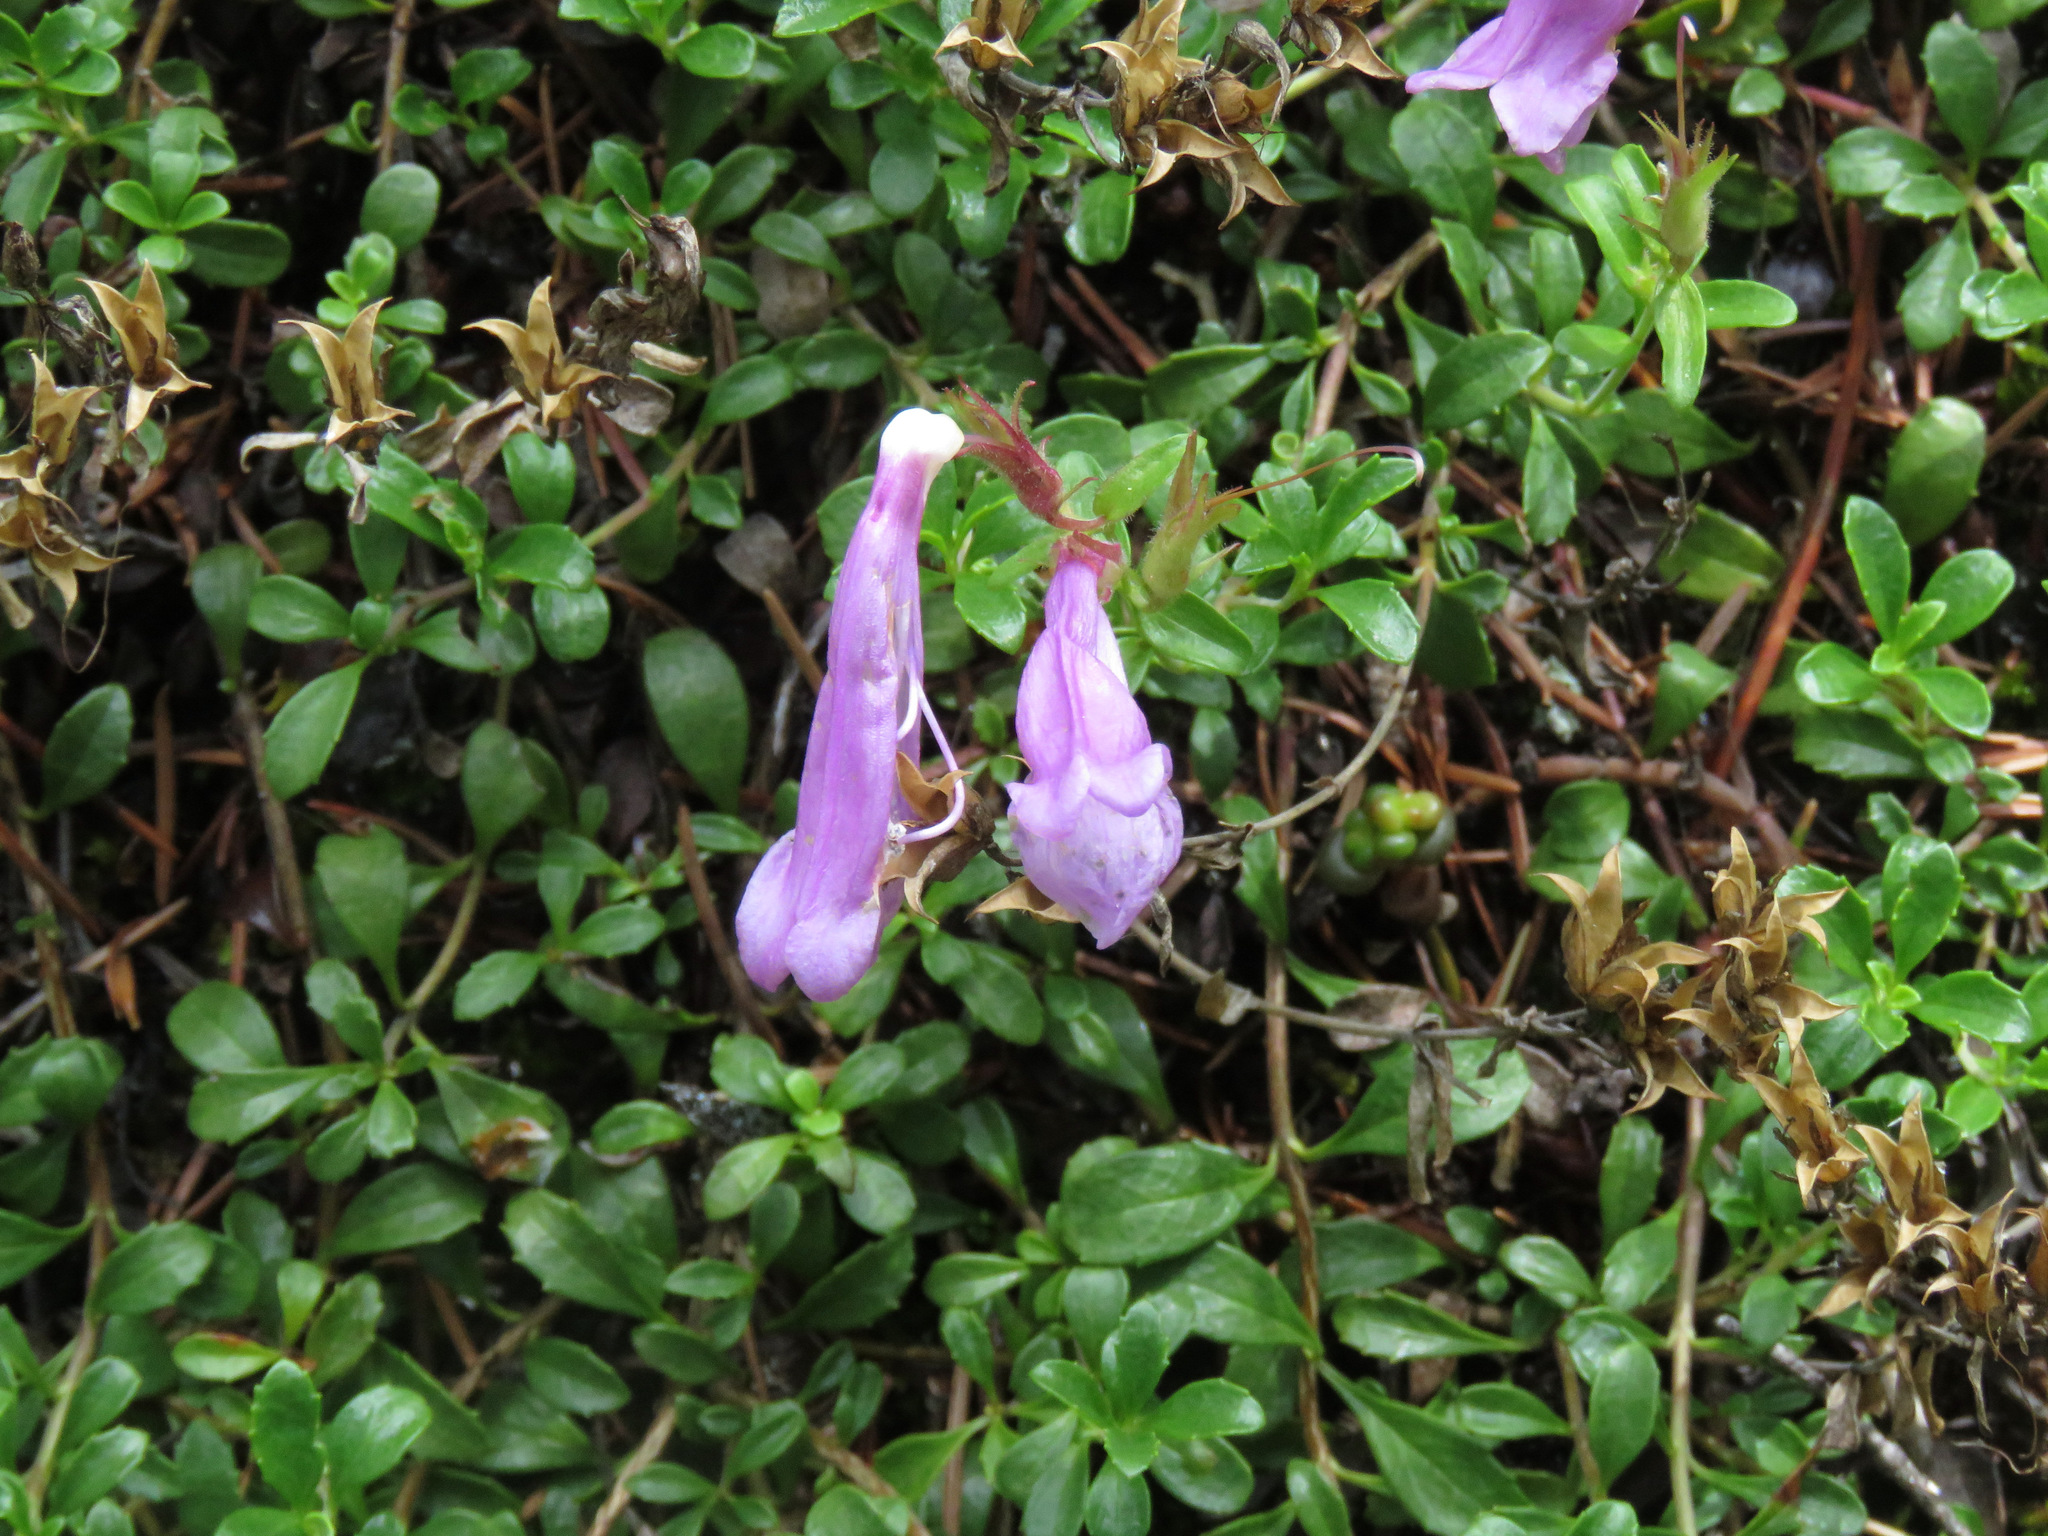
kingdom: Plantae
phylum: Tracheophyta
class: Magnoliopsida
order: Lamiales
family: Plantaginaceae
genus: Penstemon
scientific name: Penstemon davidsonii
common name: Davidson's penstemon
